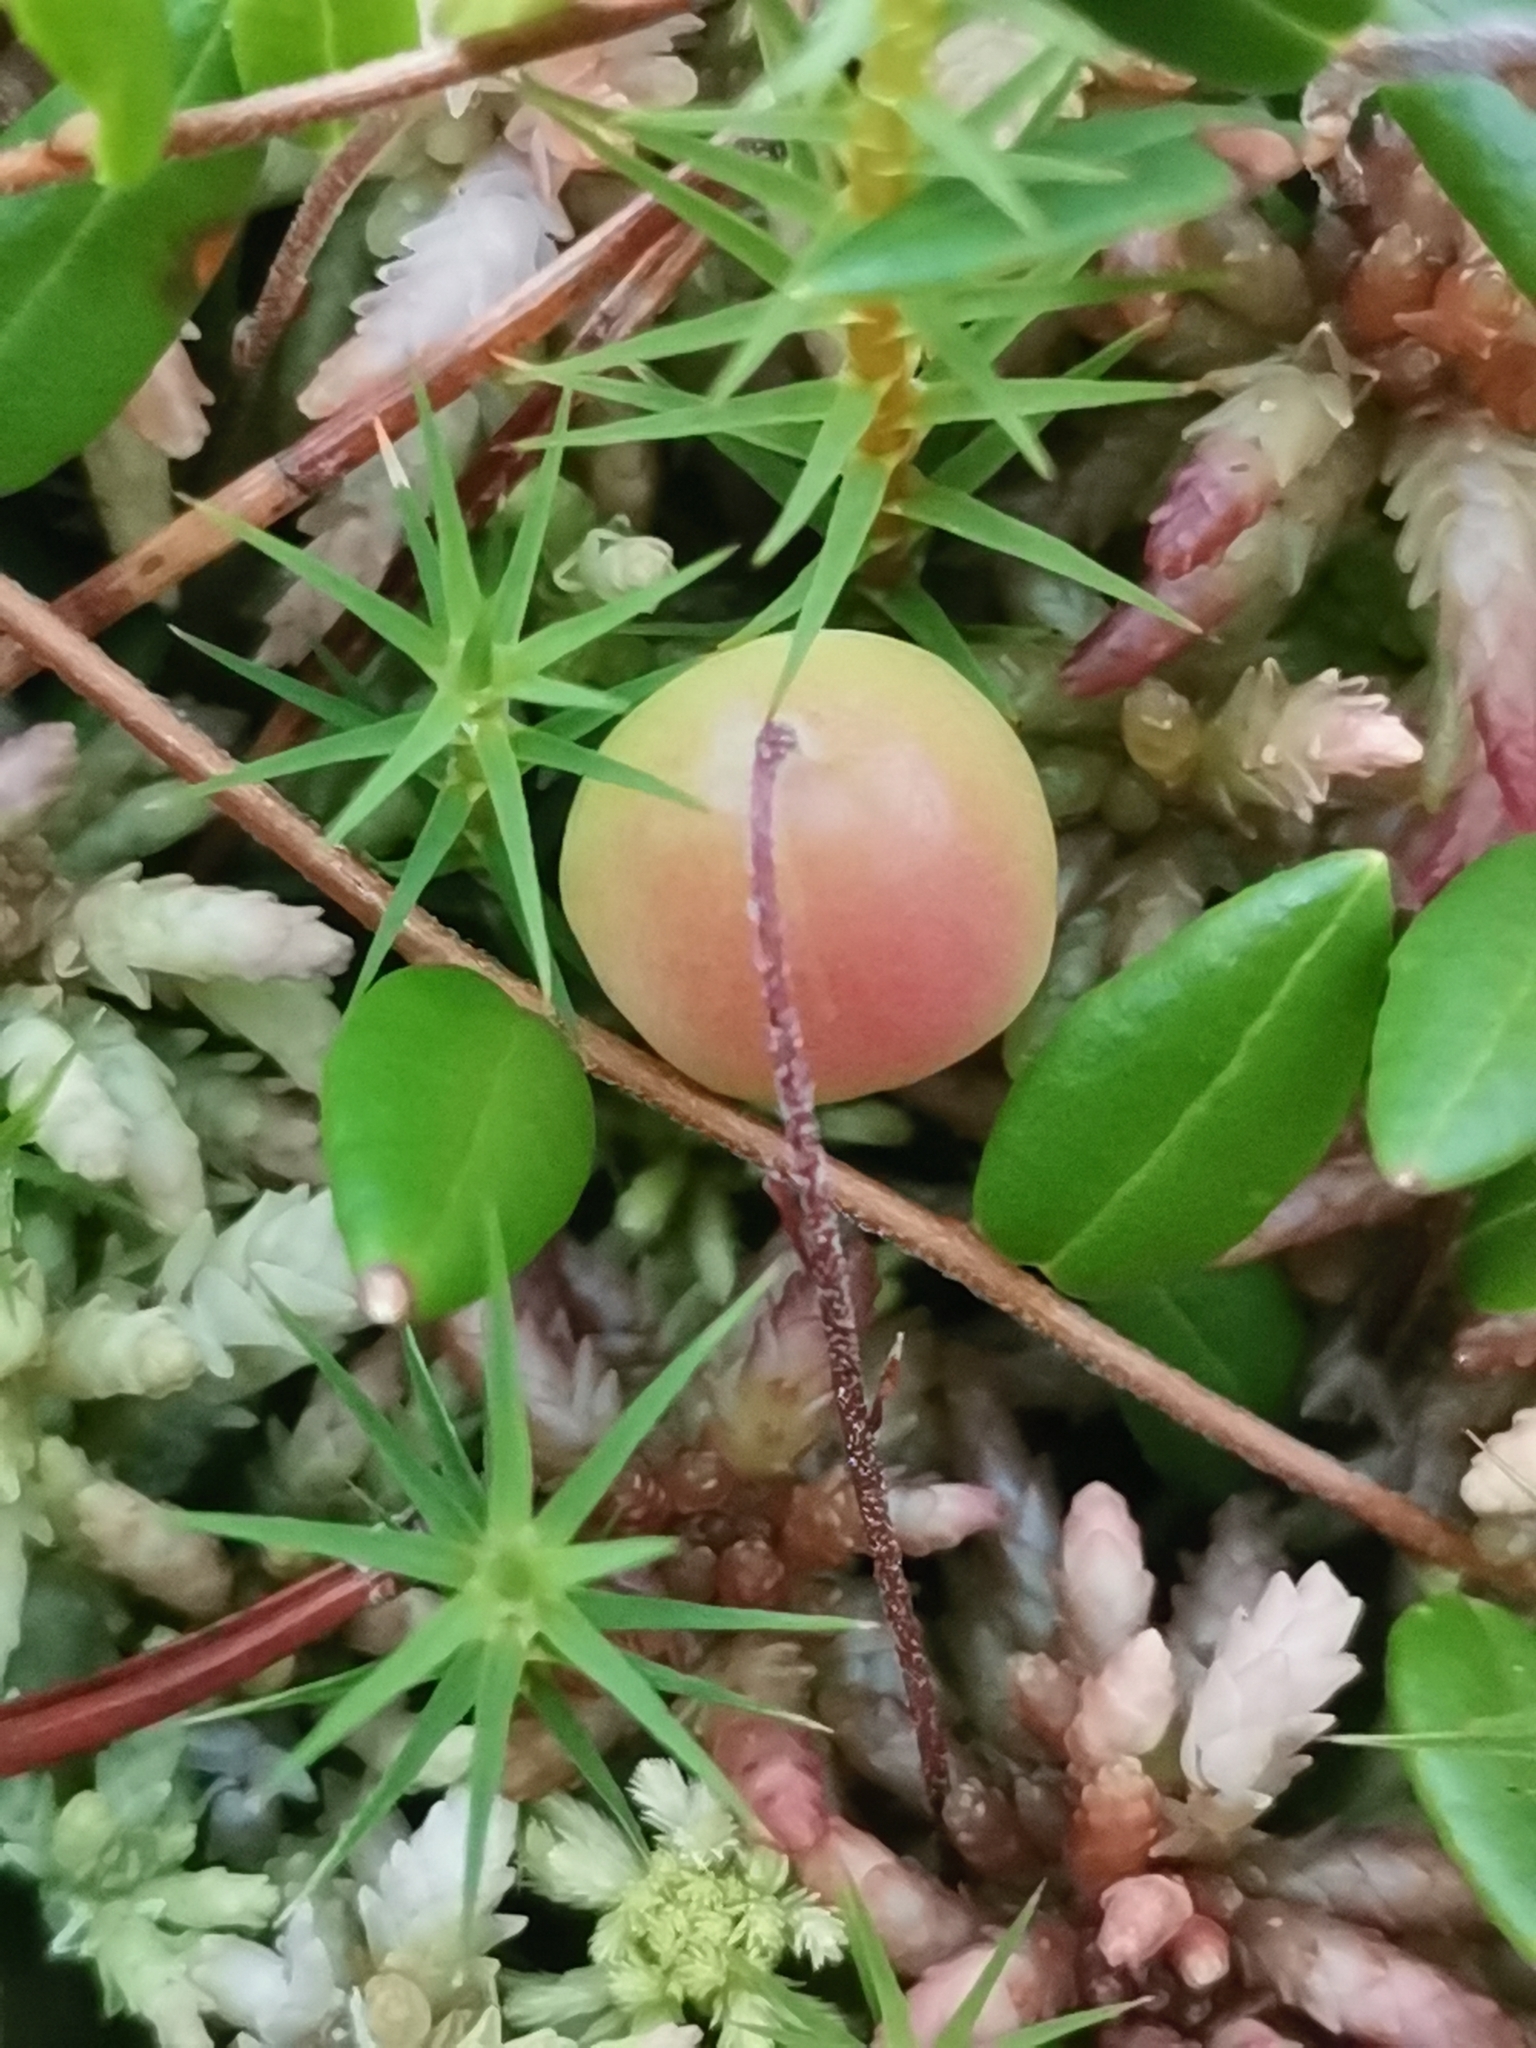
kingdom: Plantae
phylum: Tracheophyta
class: Magnoliopsida
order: Ericales
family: Ericaceae
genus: Vaccinium
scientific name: Vaccinium oxycoccos
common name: Cranberry
